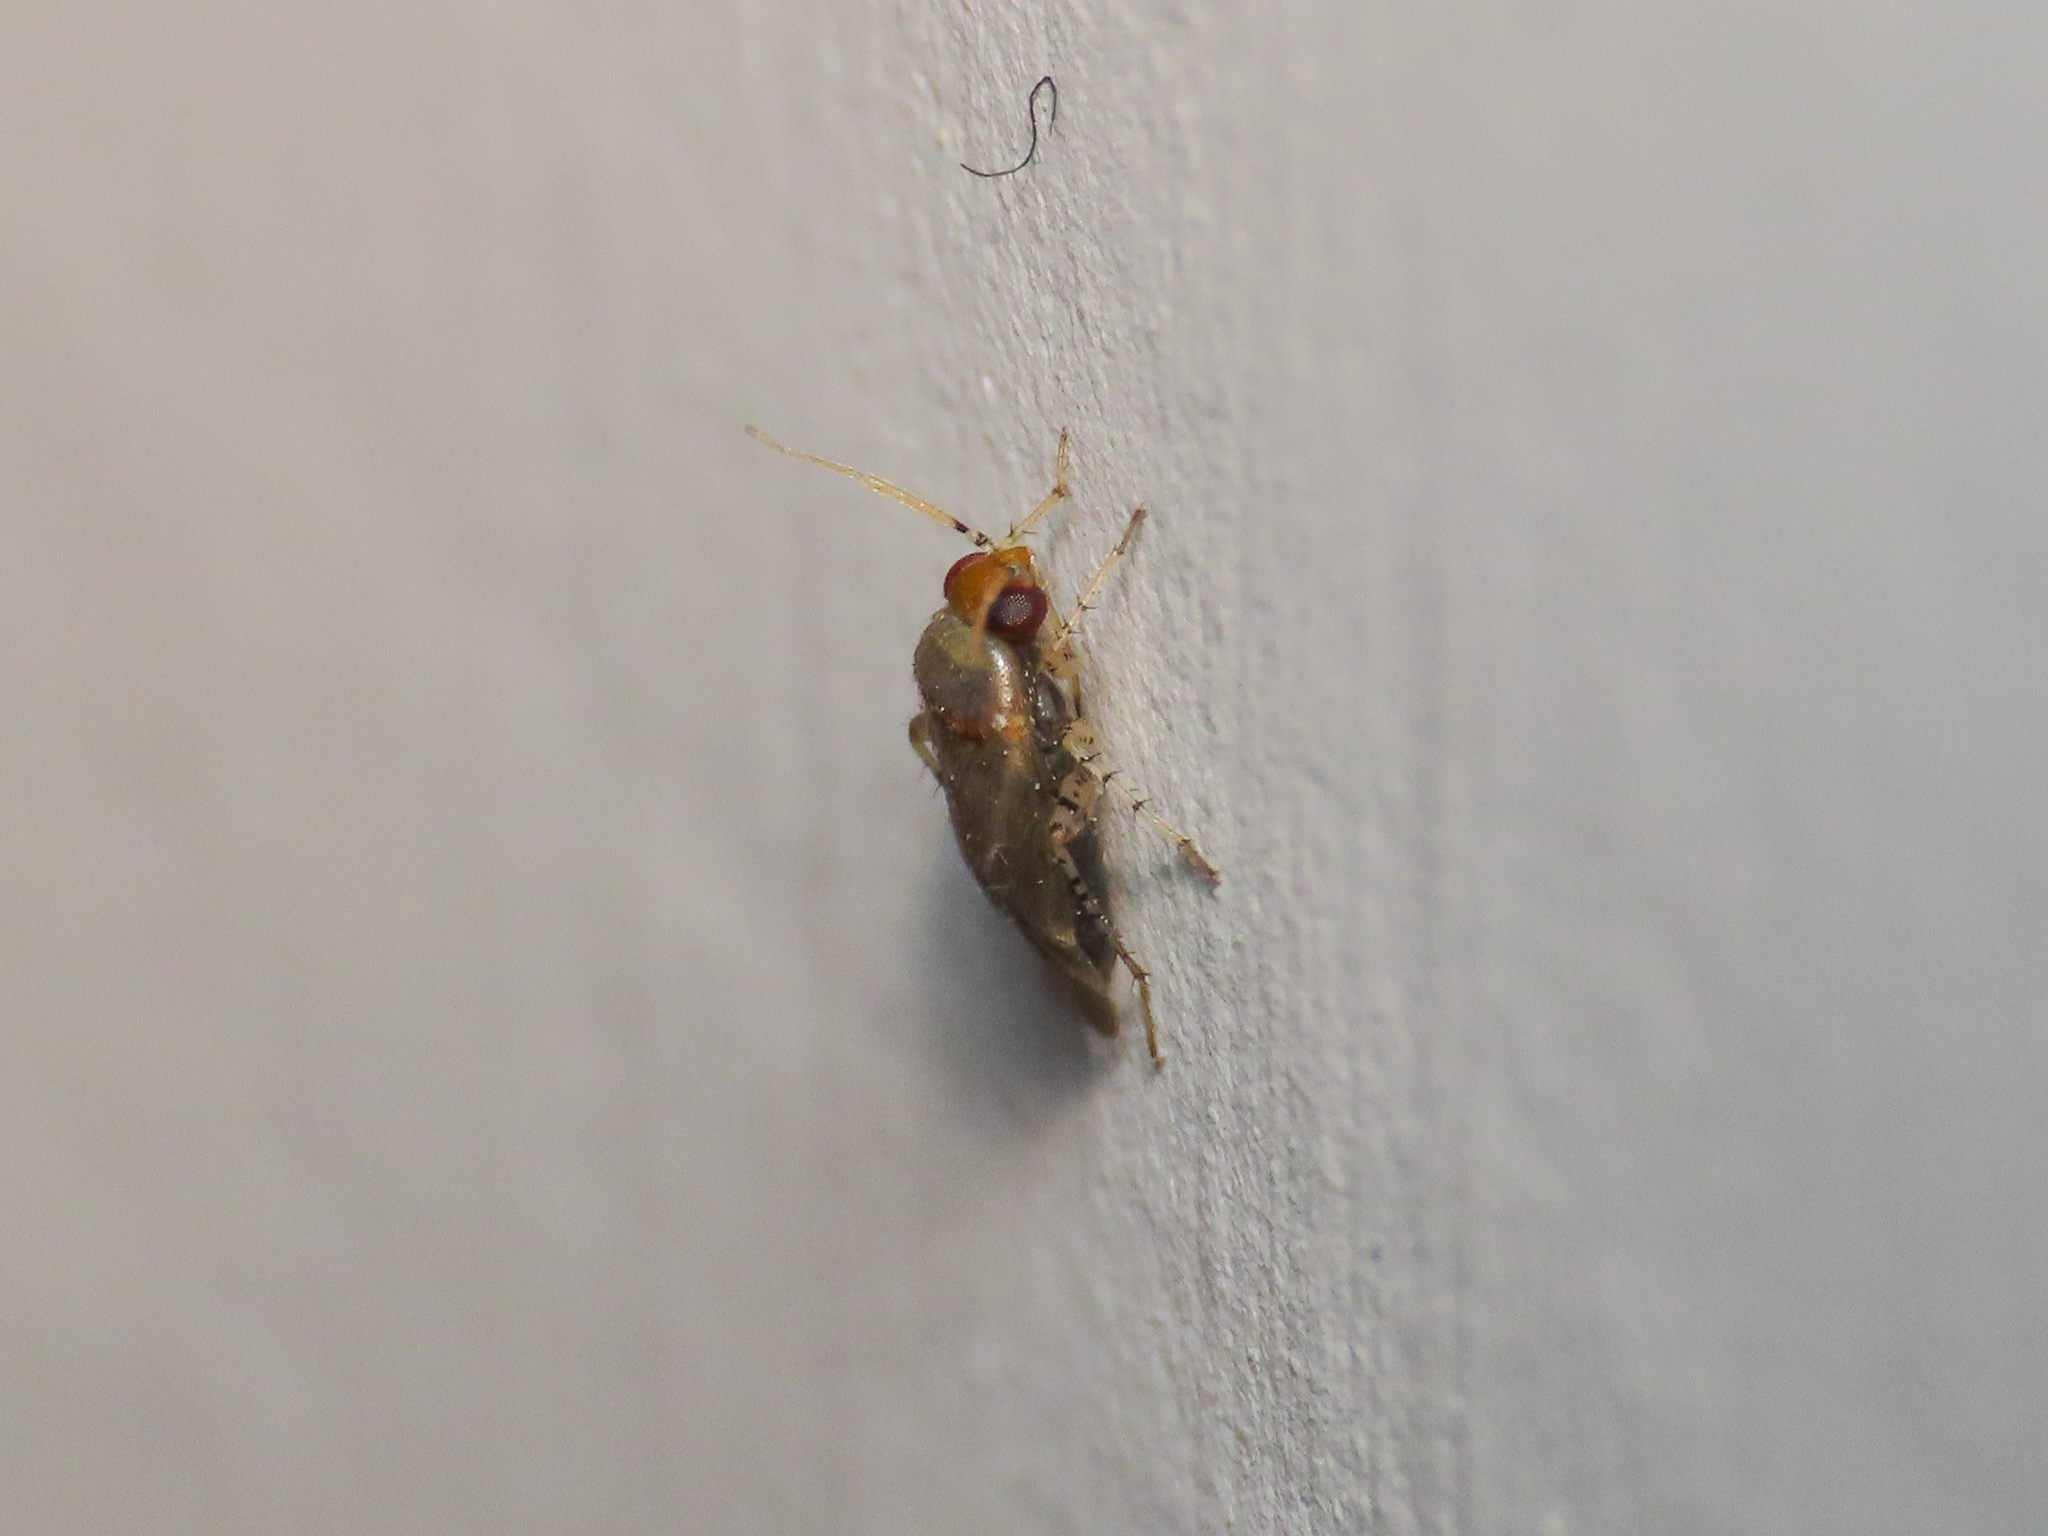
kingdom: Animalia
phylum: Arthropoda
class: Insecta
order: Hemiptera
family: Miridae
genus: Campylomma
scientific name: Campylomma verbasci
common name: Mullein bug
